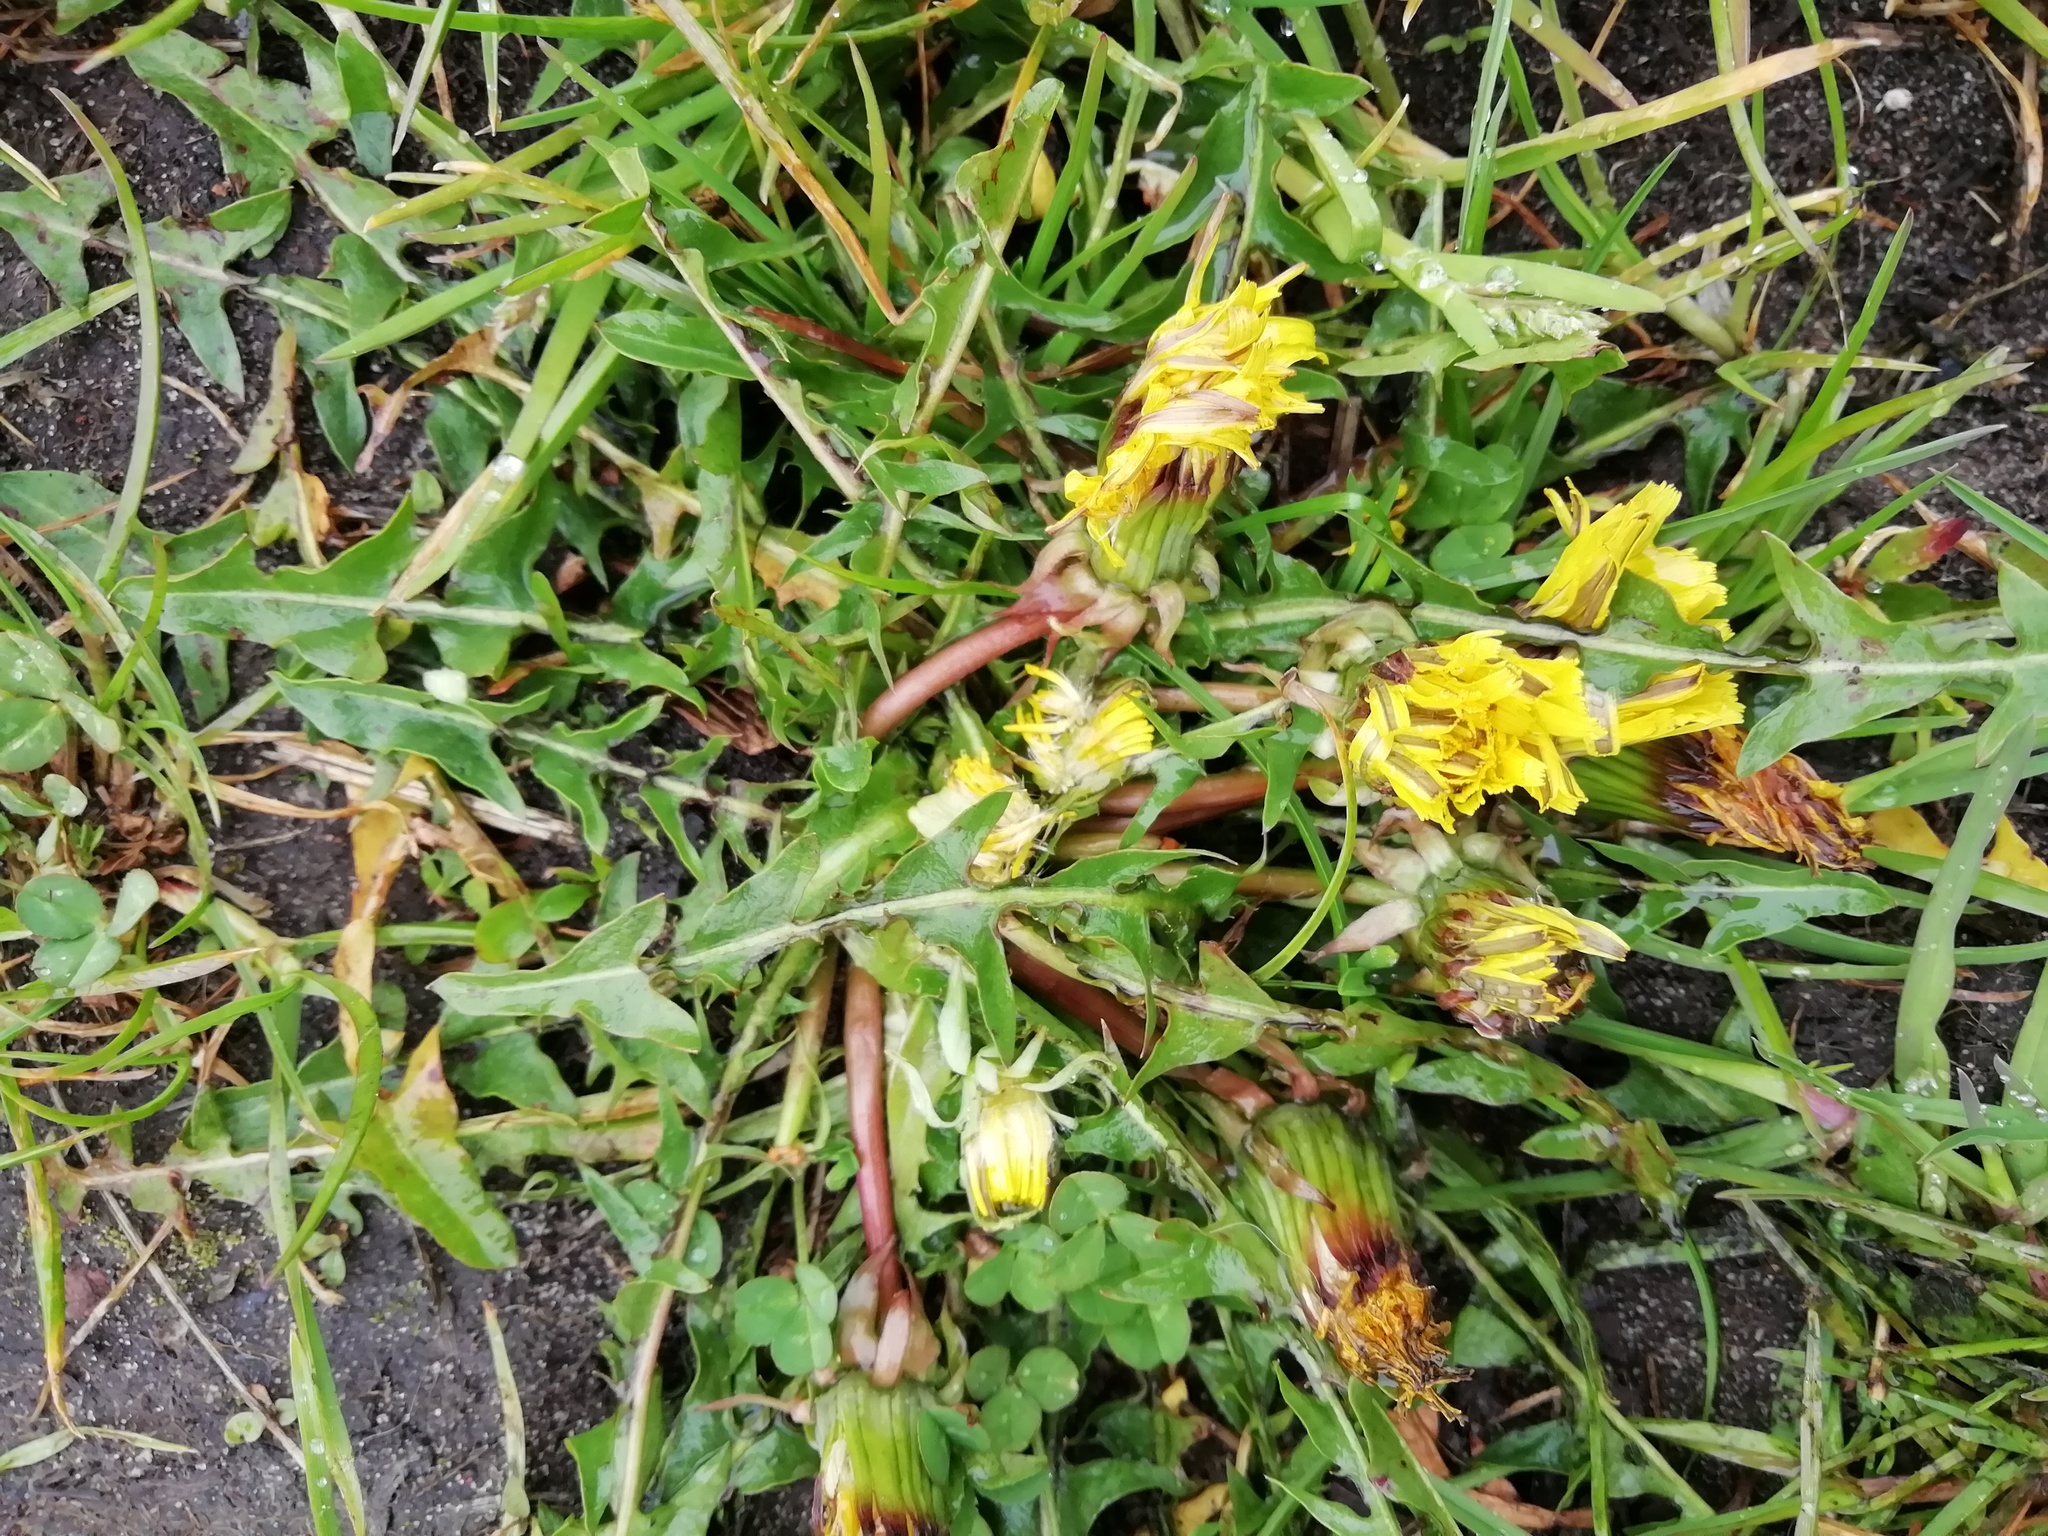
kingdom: Plantae
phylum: Tracheophyta
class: Magnoliopsida
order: Asterales
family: Asteraceae
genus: Taraxacum
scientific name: Taraxacum officinale
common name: Common dandelion
